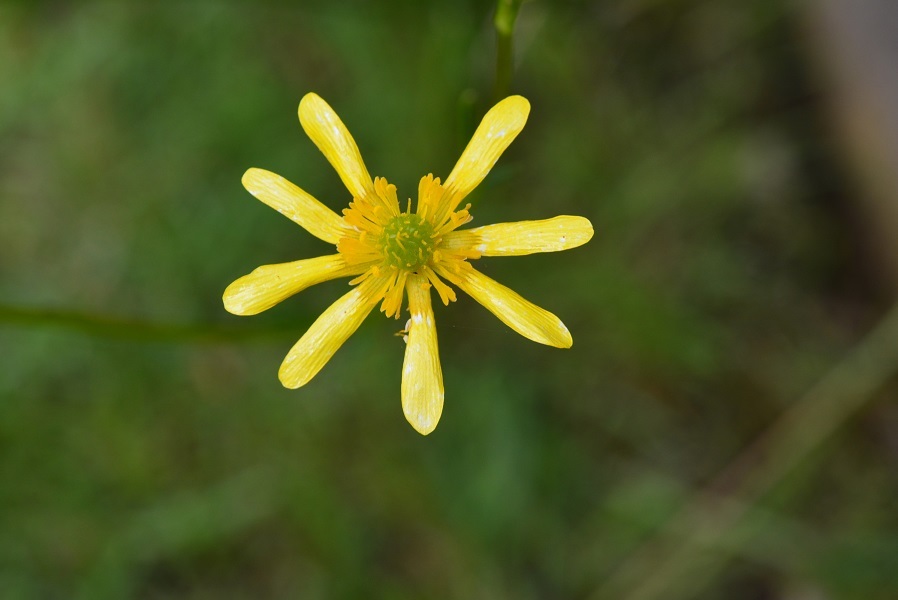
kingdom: Plantae
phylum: Tracheophyta
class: Magnoliopsida
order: Ranunculales
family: Ranunculaceae
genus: Ranunculus
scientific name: Ranunculus petiolaris
